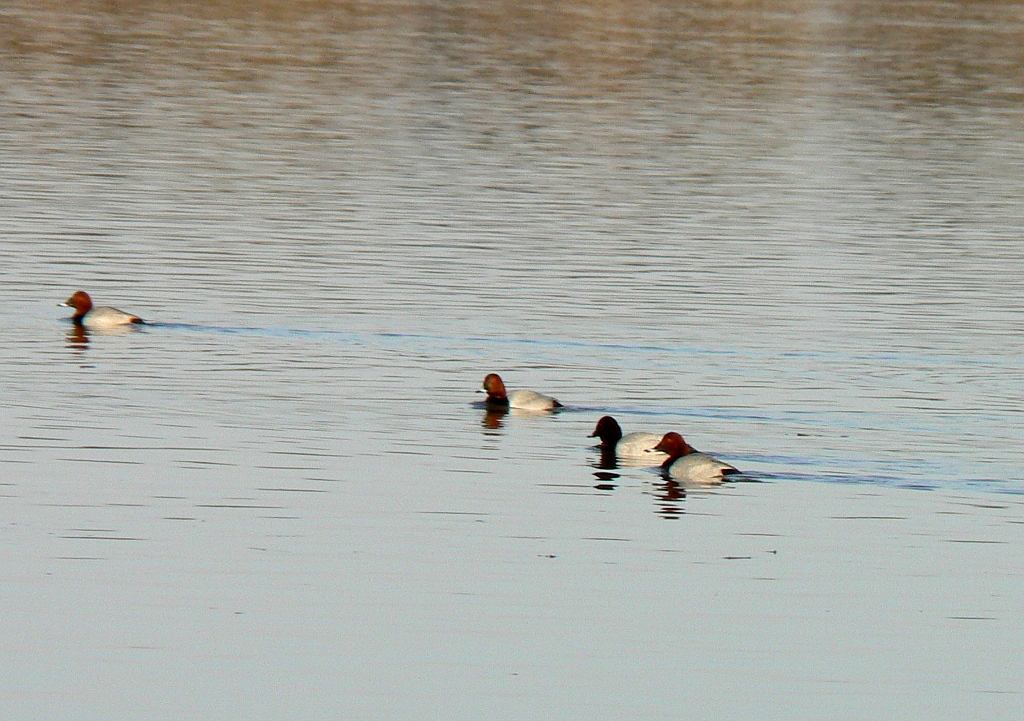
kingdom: Animalia
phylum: Chordata
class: Aves
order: Anseriformes
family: Anatidae
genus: Aythya
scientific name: Aythya ferina
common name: Common pochard
